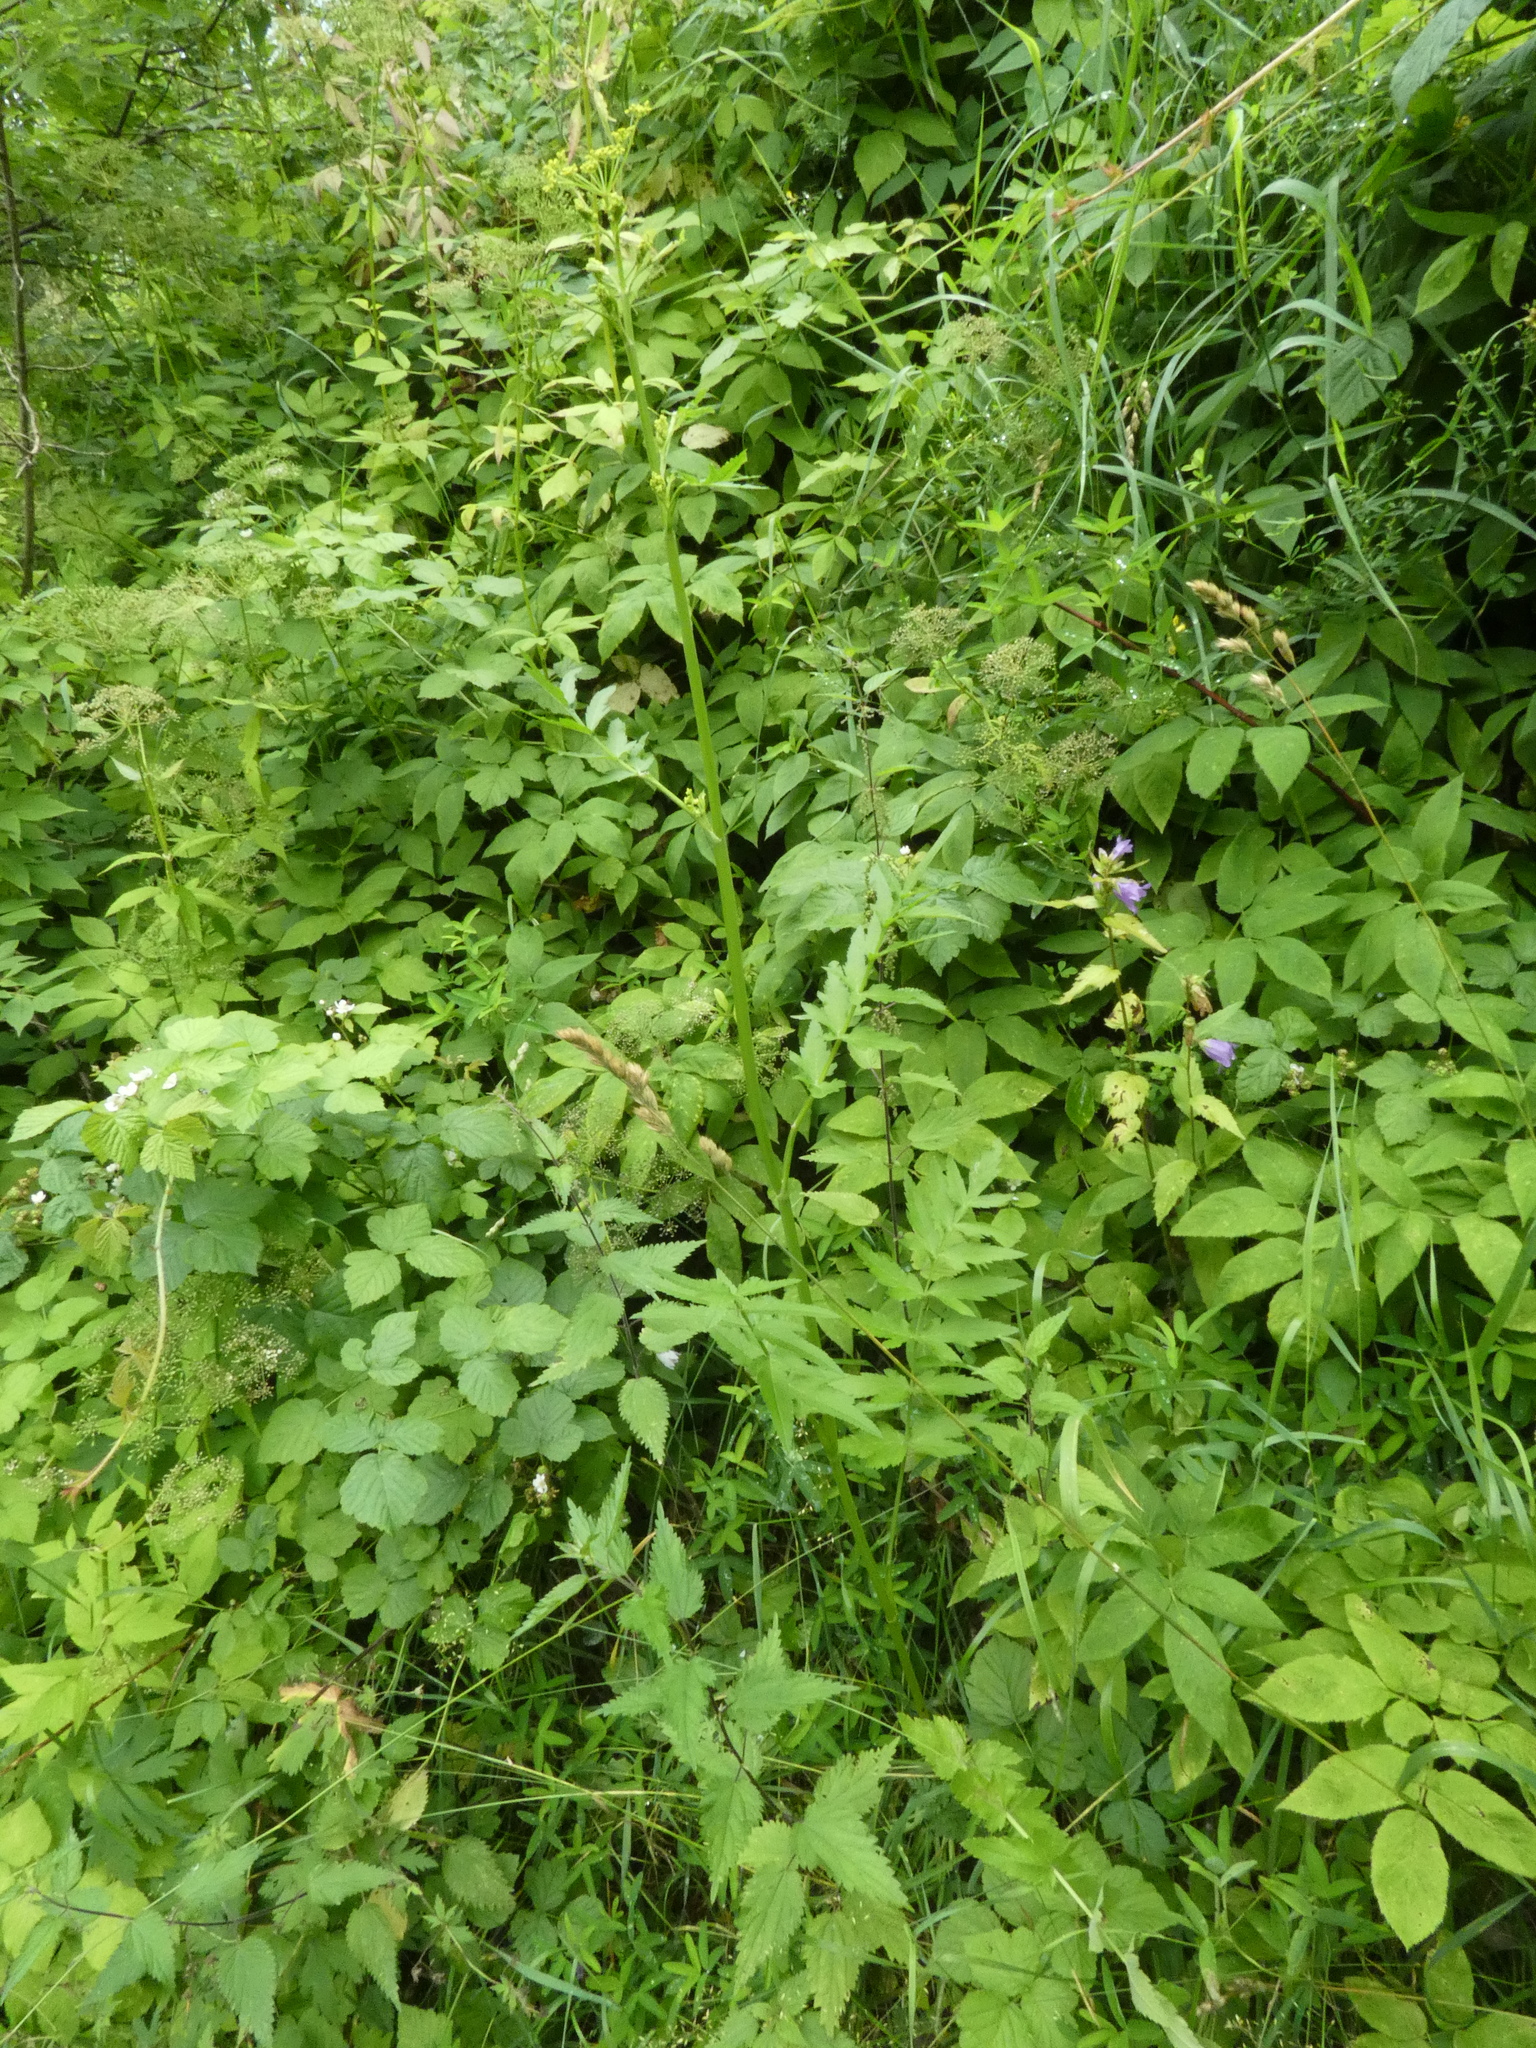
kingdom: Plantae
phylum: Tracheophyta
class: Magnoliopsida
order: Apiales
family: Apiaceae
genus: Pastinaca
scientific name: Pastinaca sativa
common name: Wild parsnip
